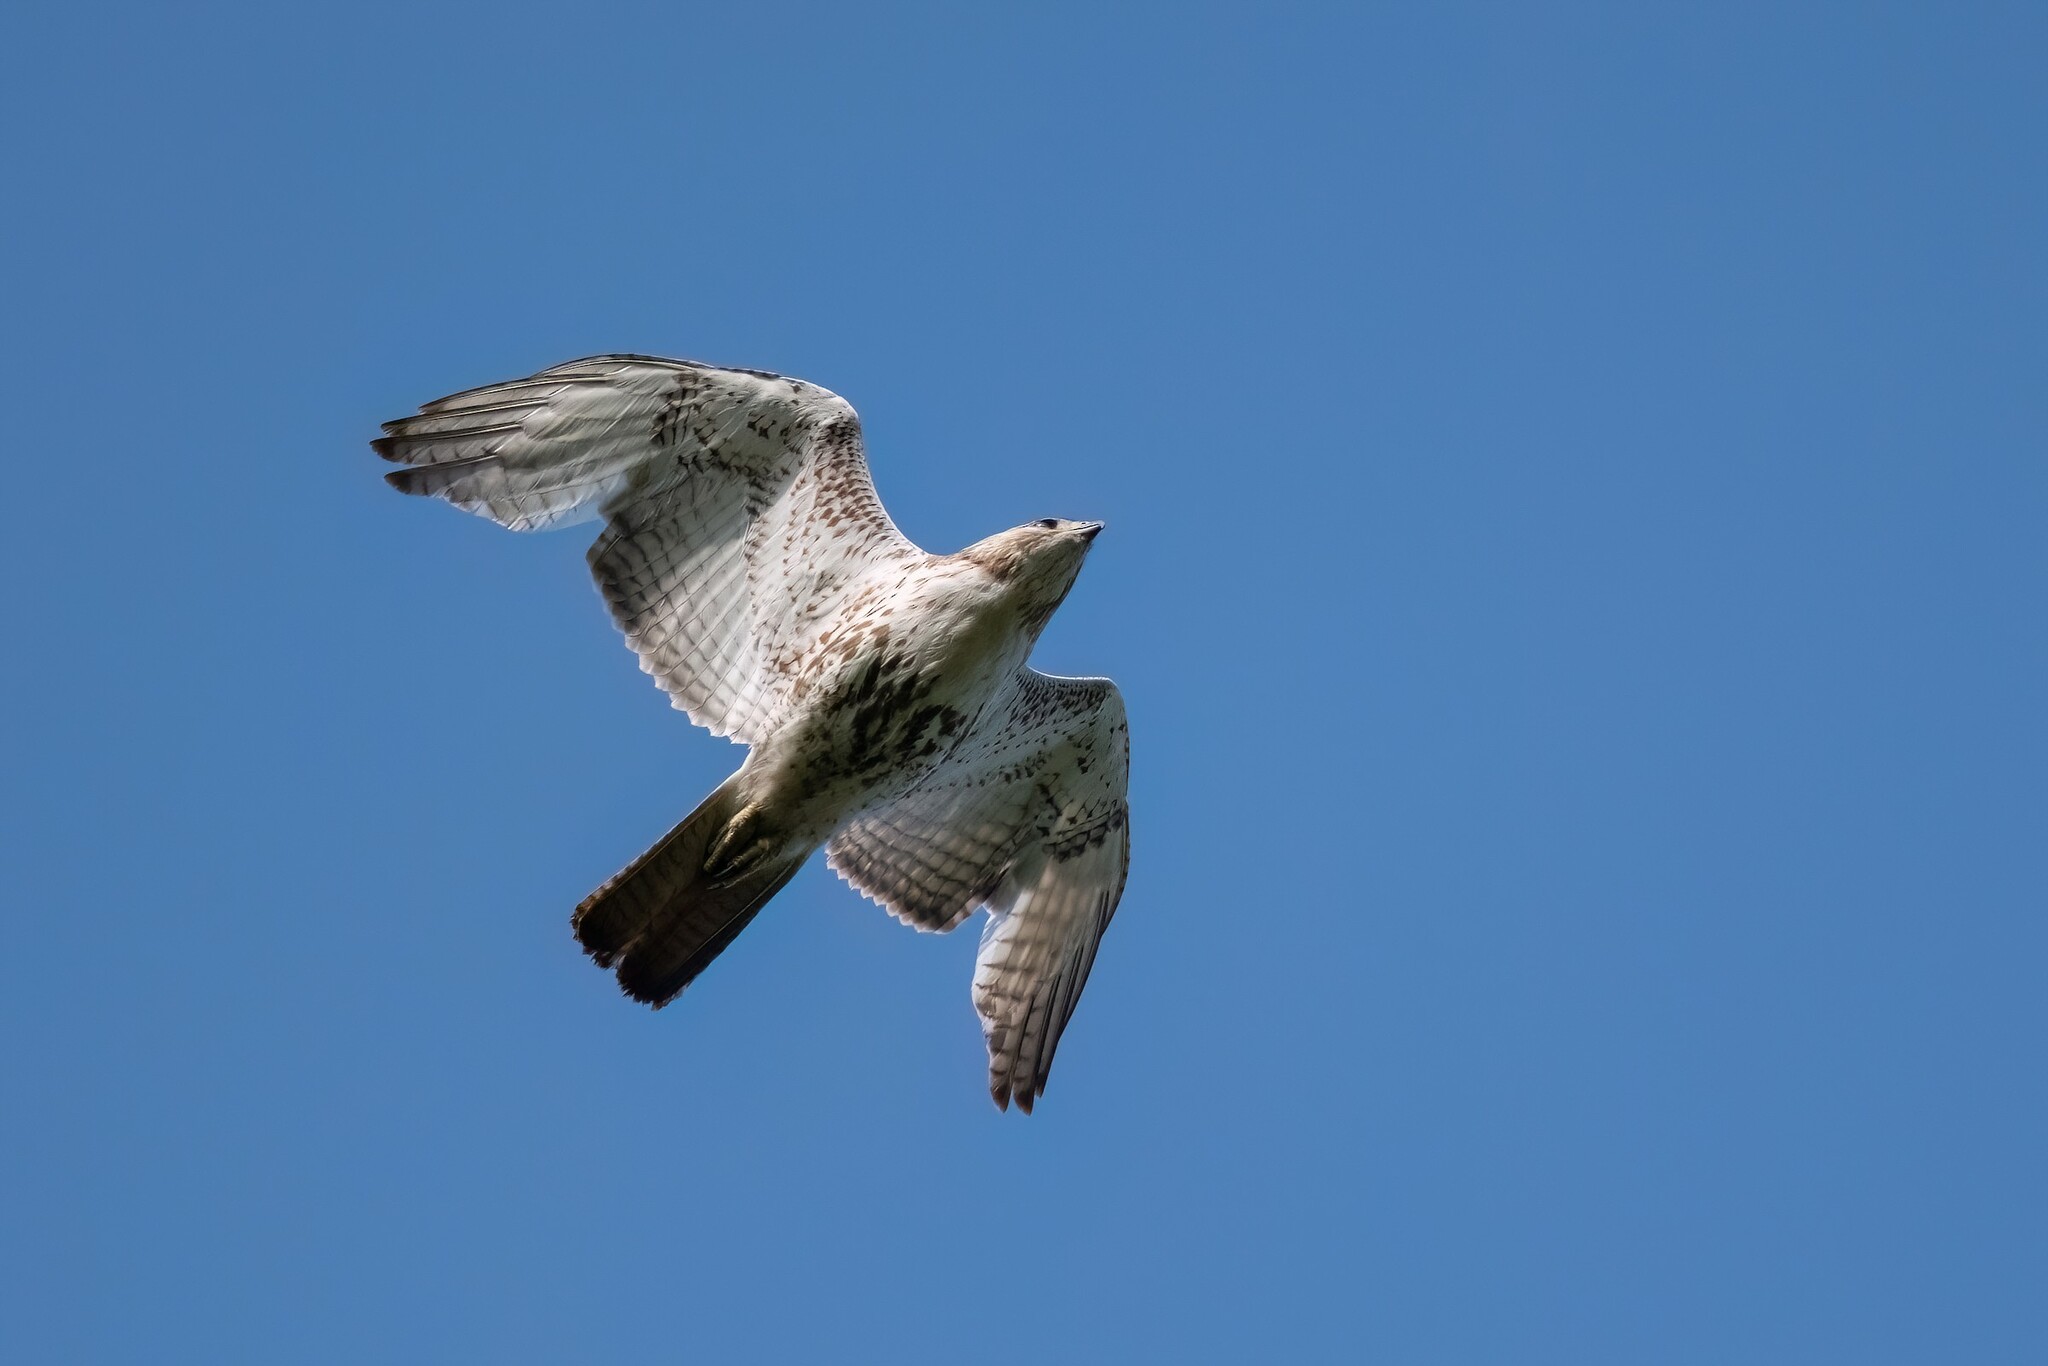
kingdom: Animalia
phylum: Chordata
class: Aves
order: Accipitriformes
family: Accipitridae
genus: Buteo
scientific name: Buteo jamaicensis
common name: Red-tailed hawk
